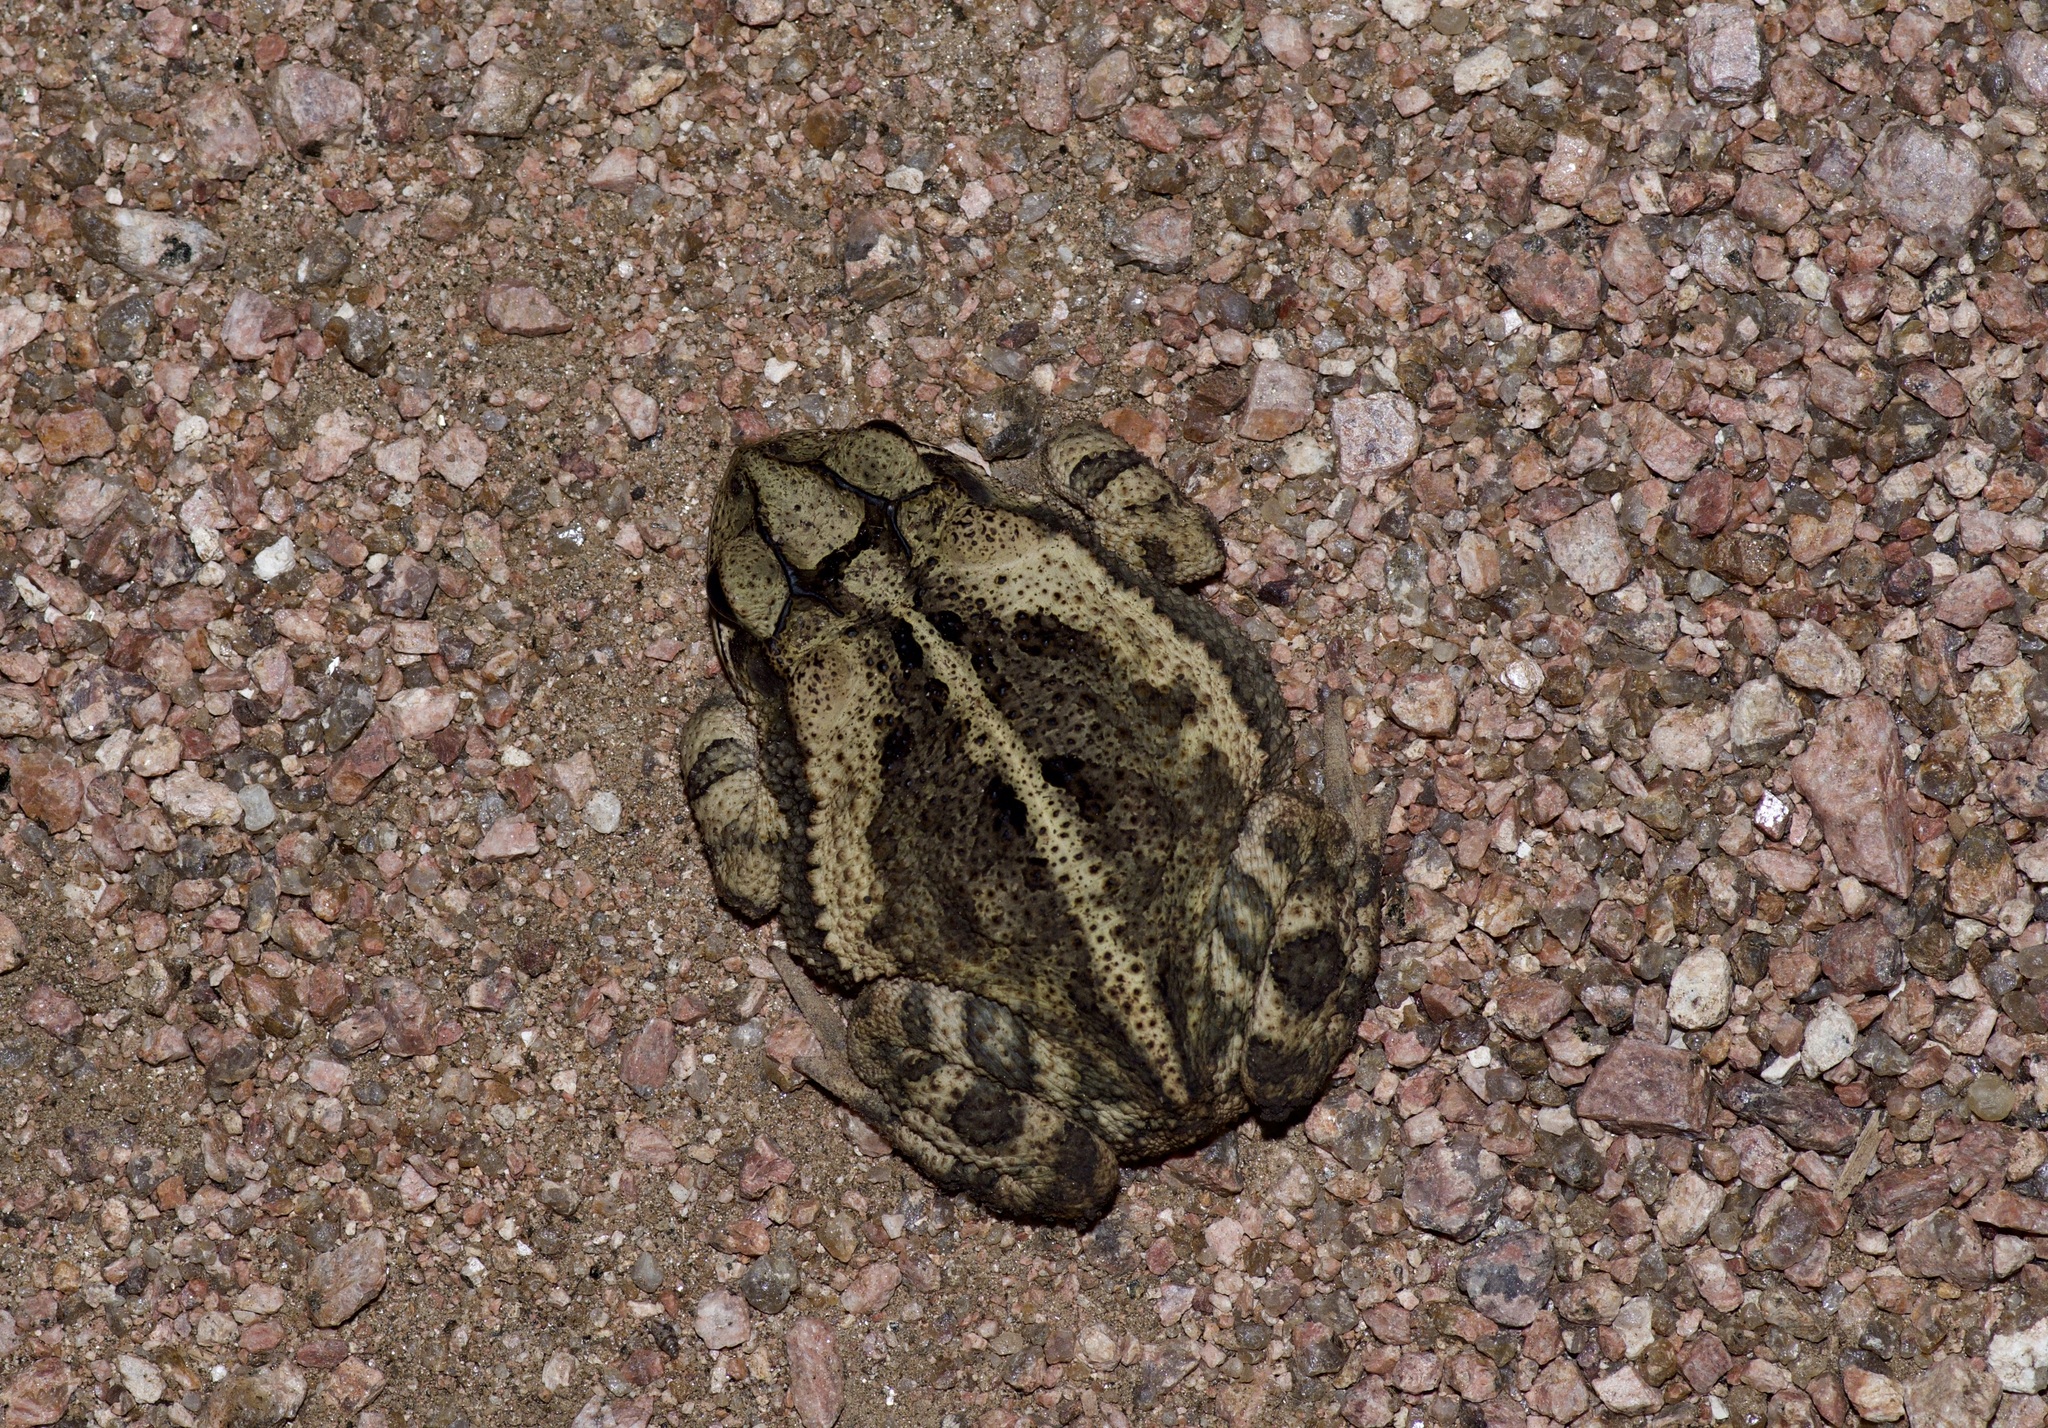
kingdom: Animalia
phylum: Chordata
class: Amphibia
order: Anura
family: Bufonidae
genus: Incilius
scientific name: Incilius nebulifer
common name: Gulf coast toad
